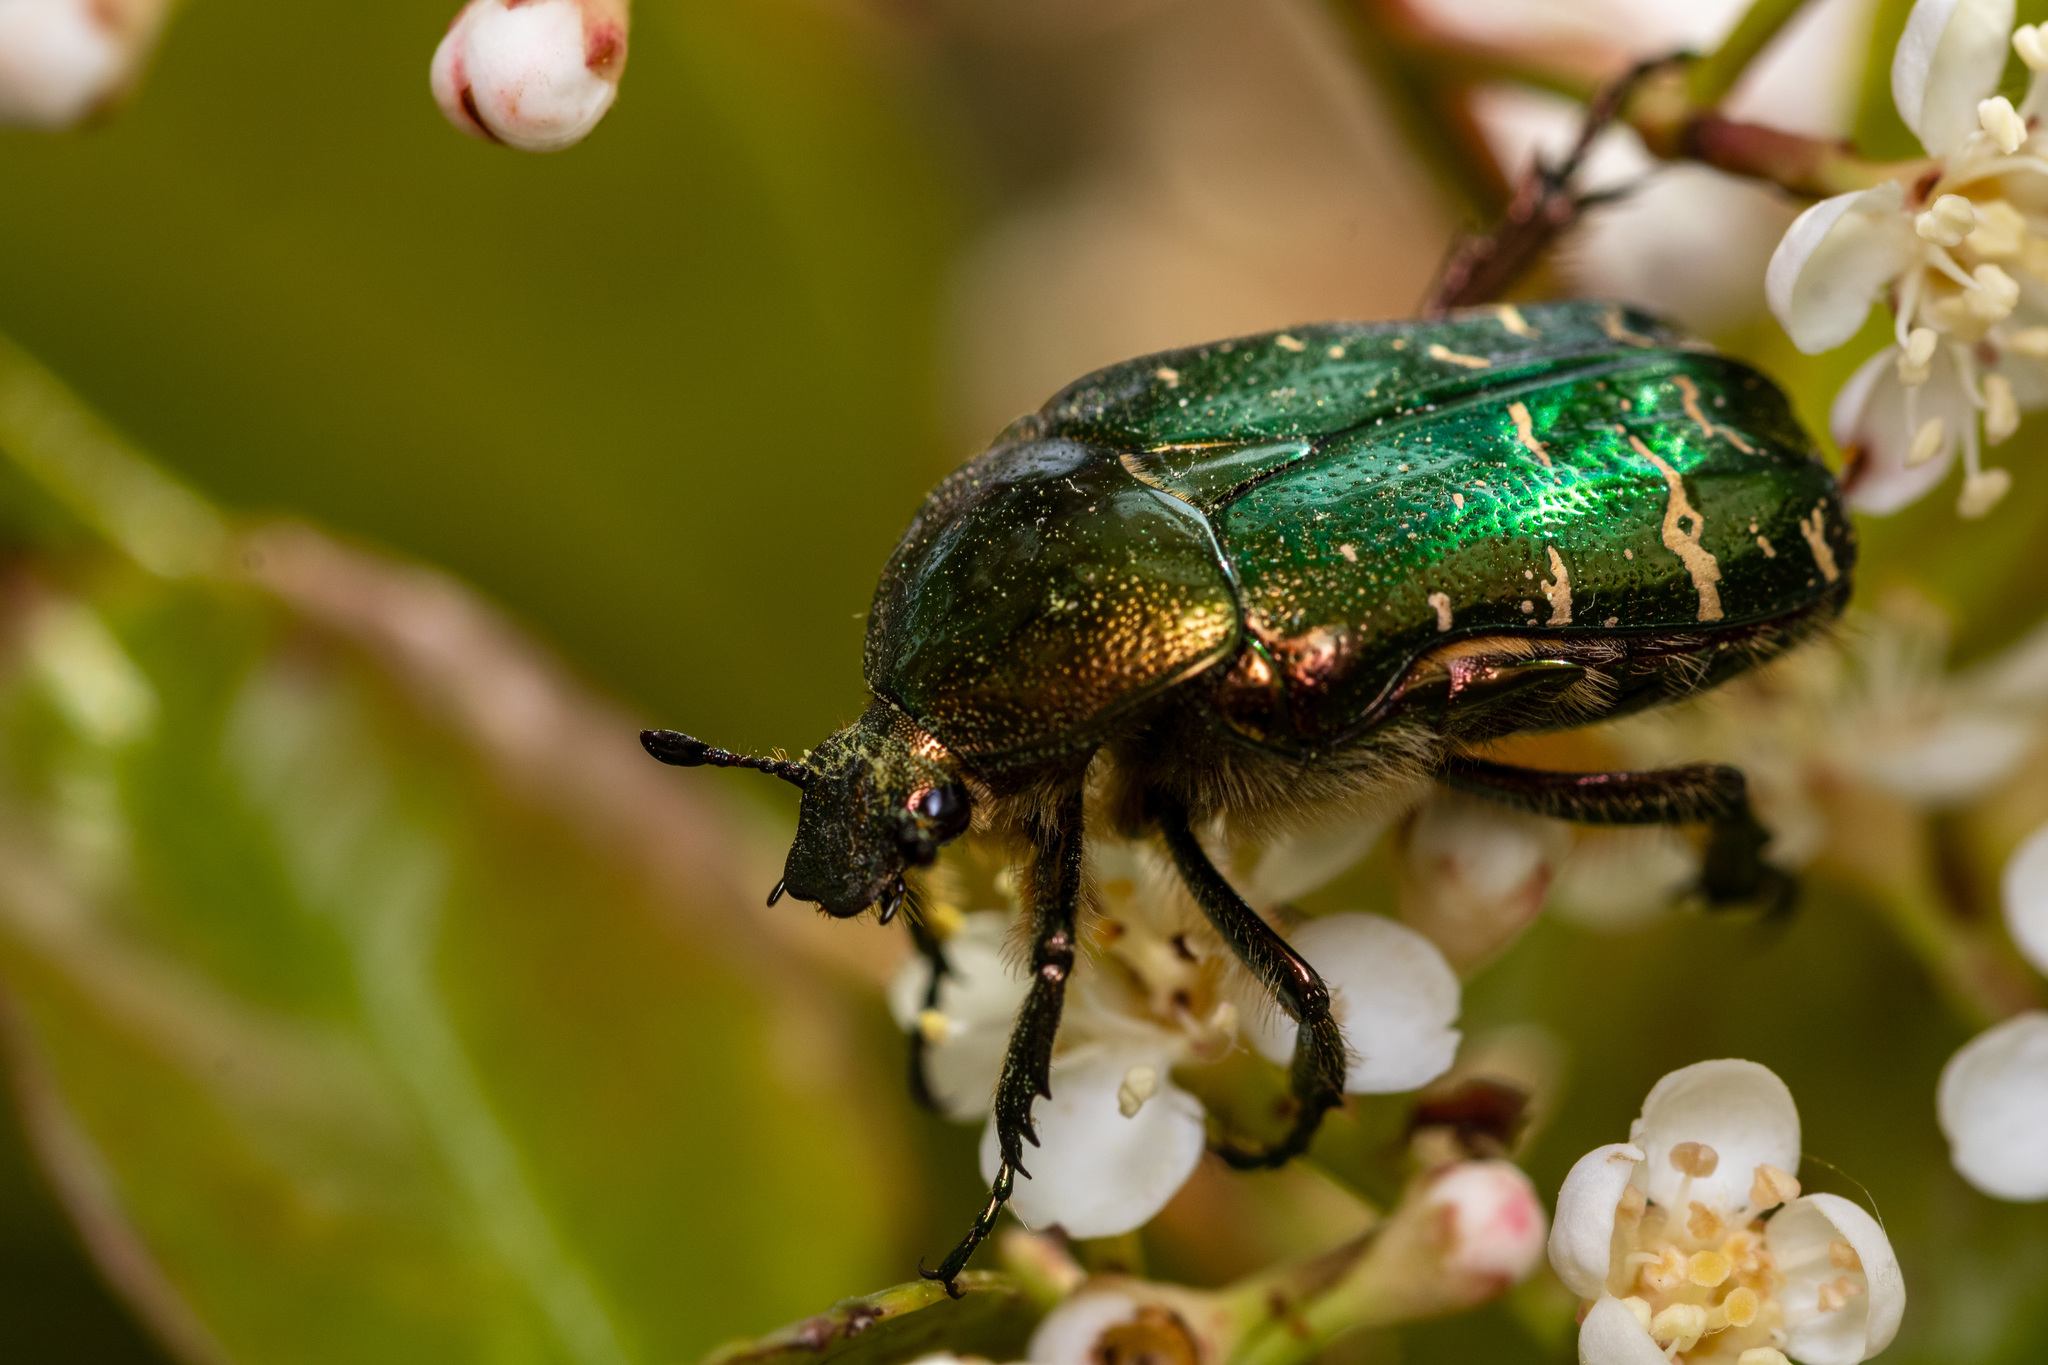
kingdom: Animalia
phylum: Arthropoda
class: Insecta
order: Coleoptera
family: Scarabaeidae
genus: Cetonia
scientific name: Cetonia aurata
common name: Rose chafer
